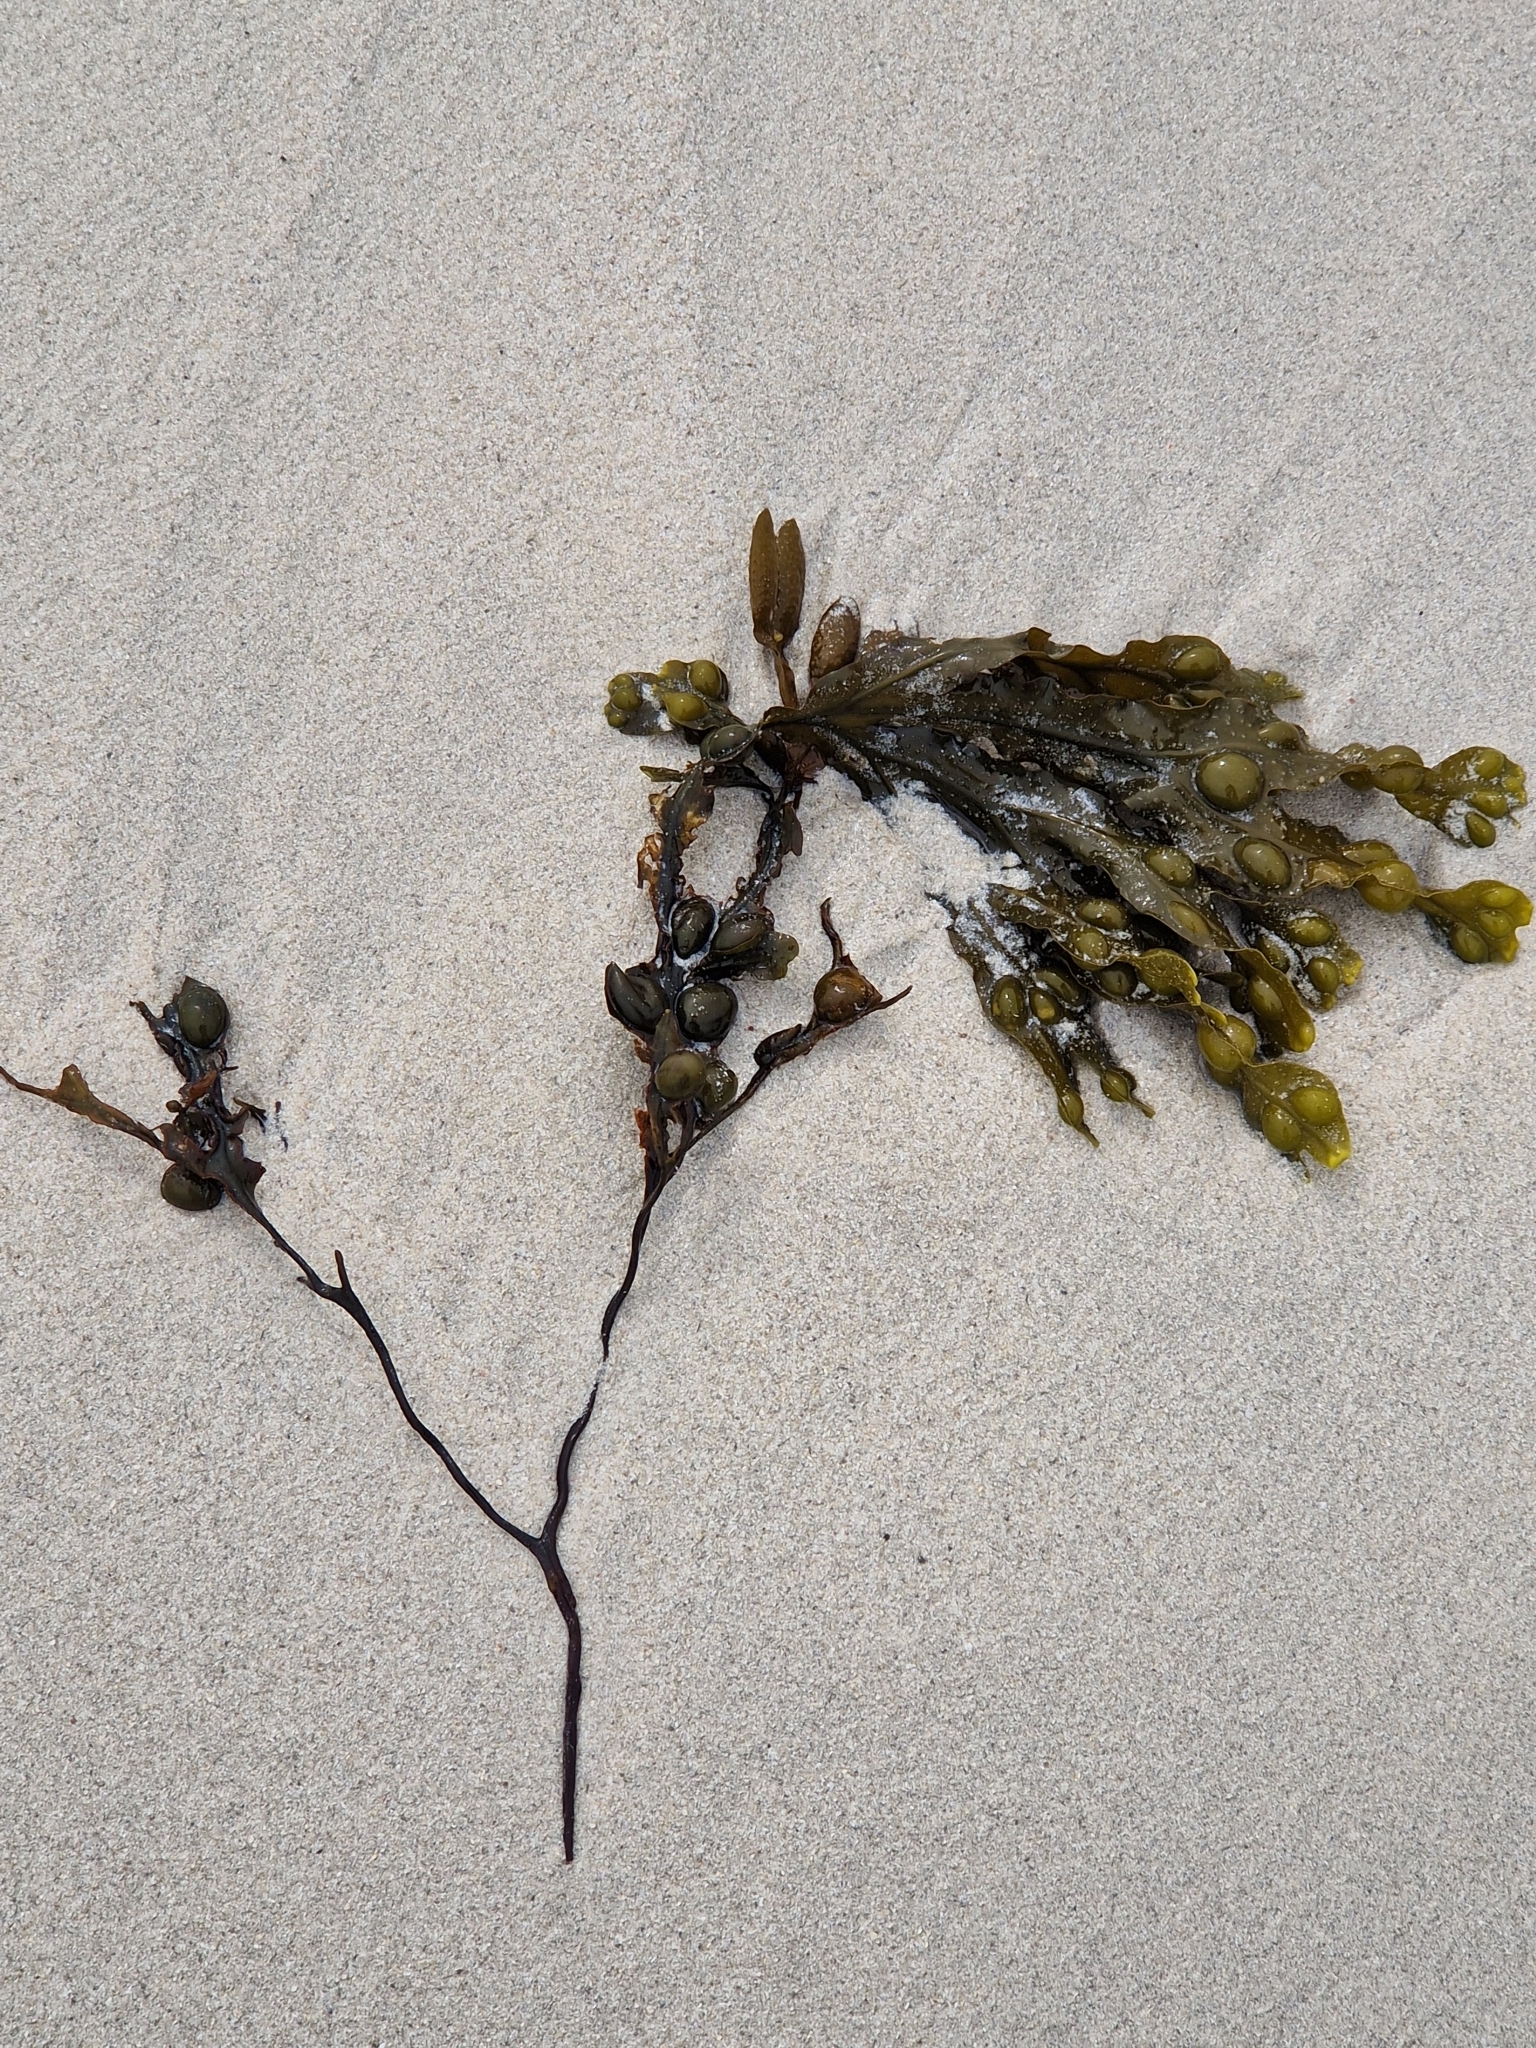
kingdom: Chromista
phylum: Ochrophyta
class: Phaeophyceae
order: Fucales
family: Fucaceae
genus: Fucus
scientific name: Fucus vesiculosus
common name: Bladder wrack
